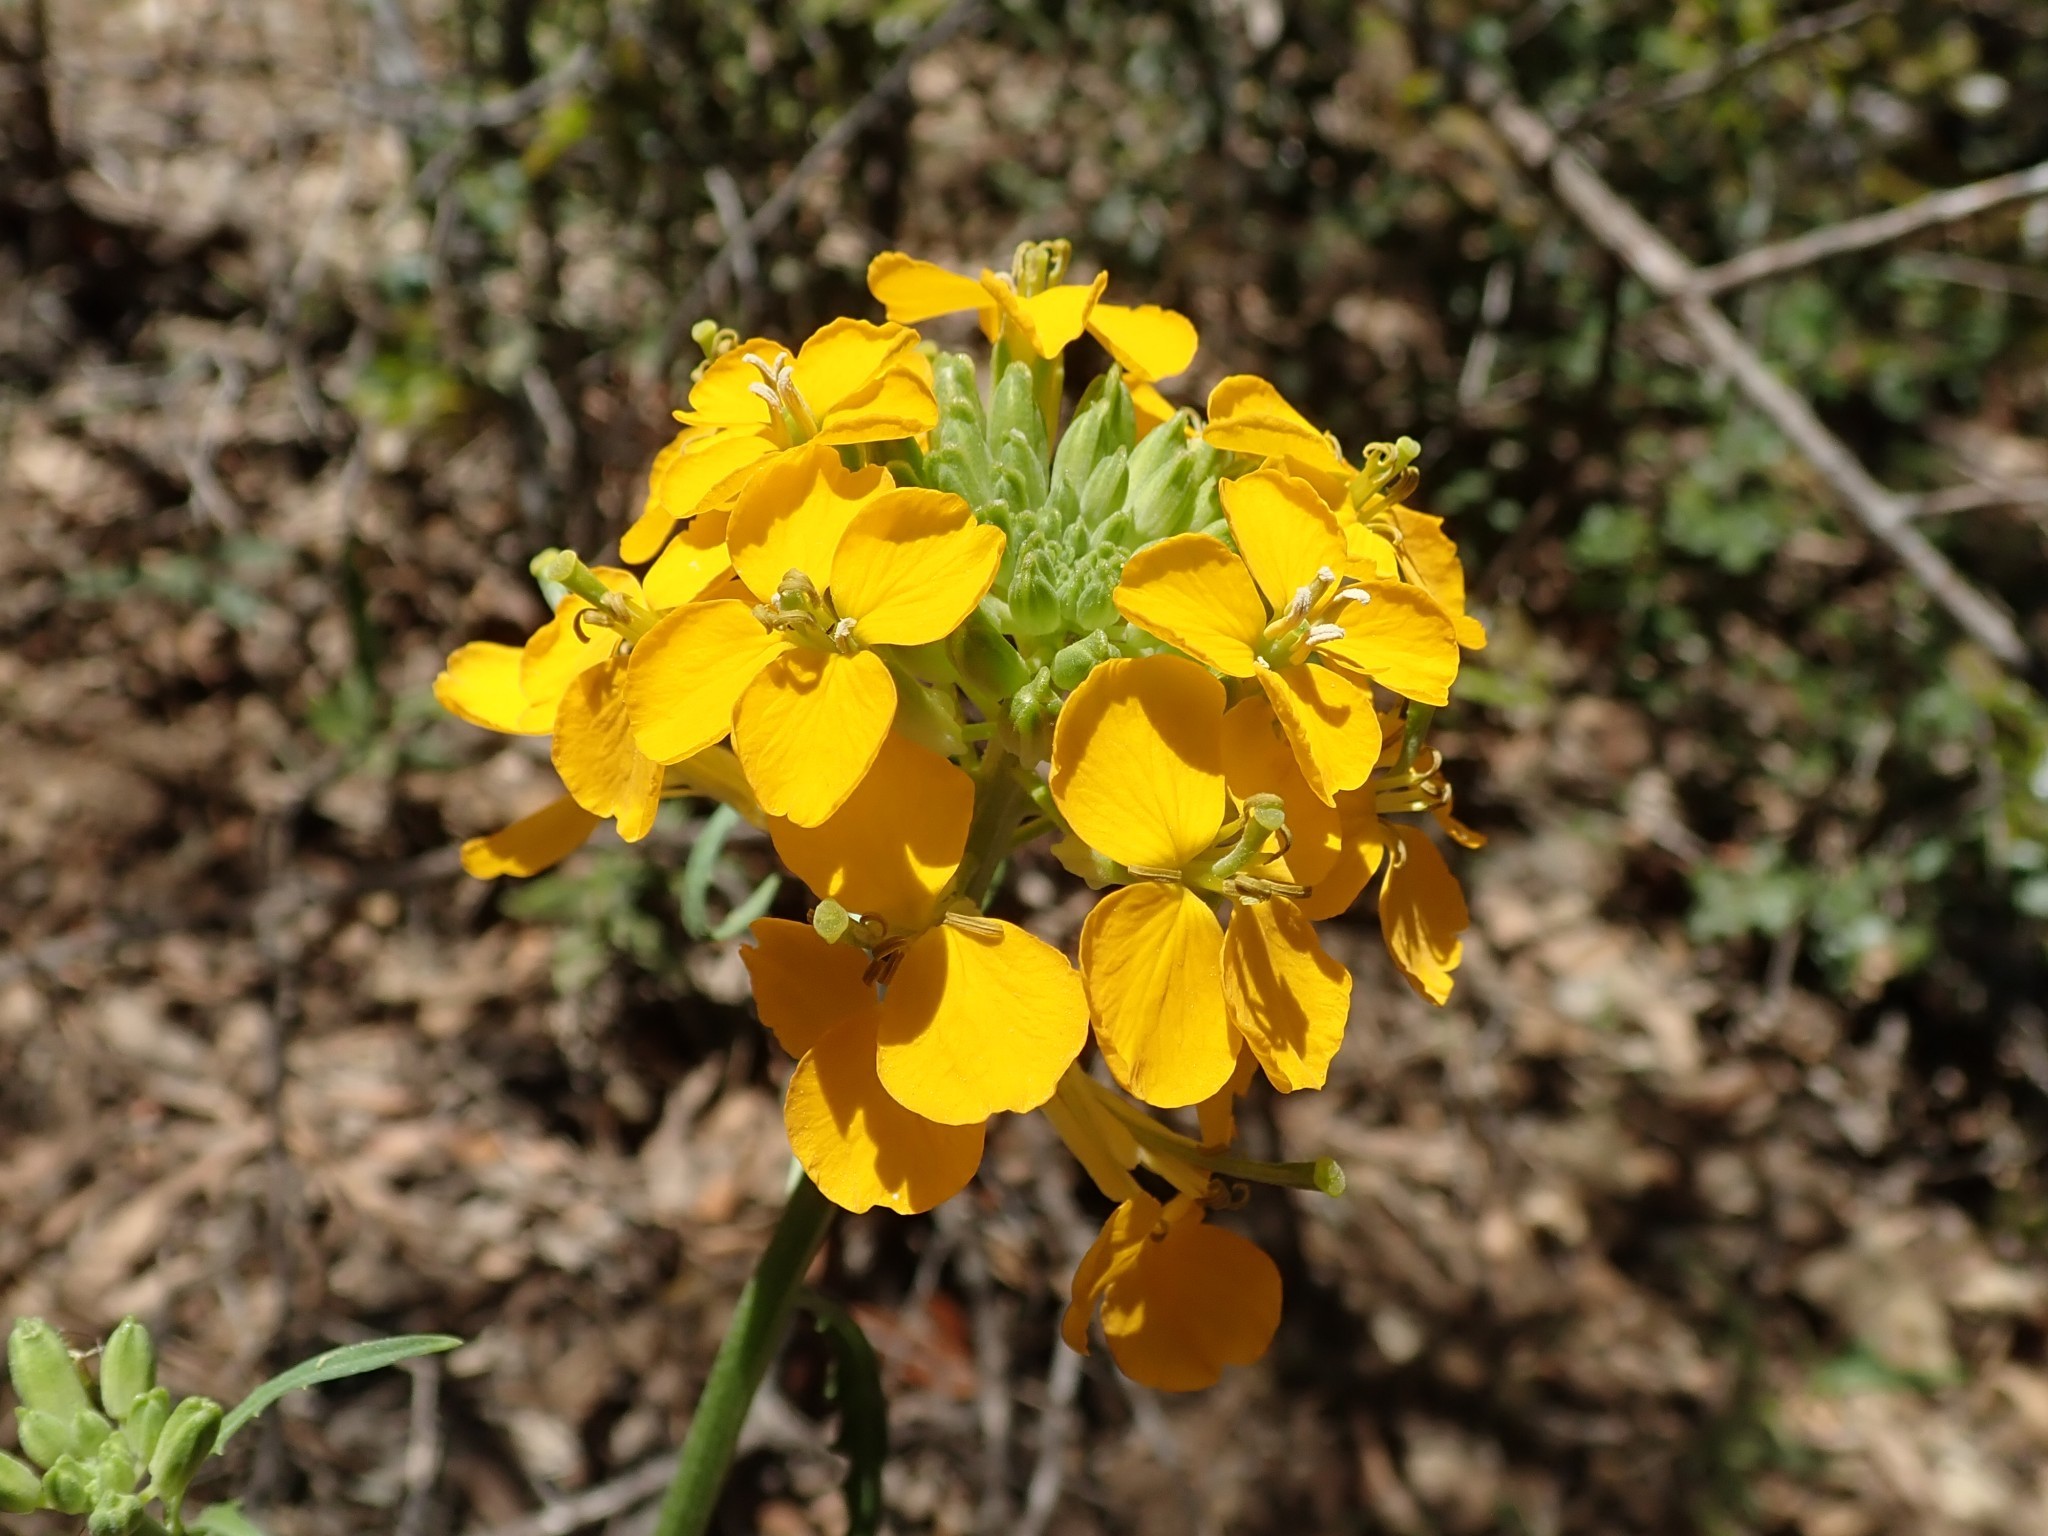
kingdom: Plantae
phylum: Tracheophyta
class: Magnoliopsida
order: Brassicales
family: Brassicaceae
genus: Erysimum
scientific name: Erysimum capitatum
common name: Western wallflower
